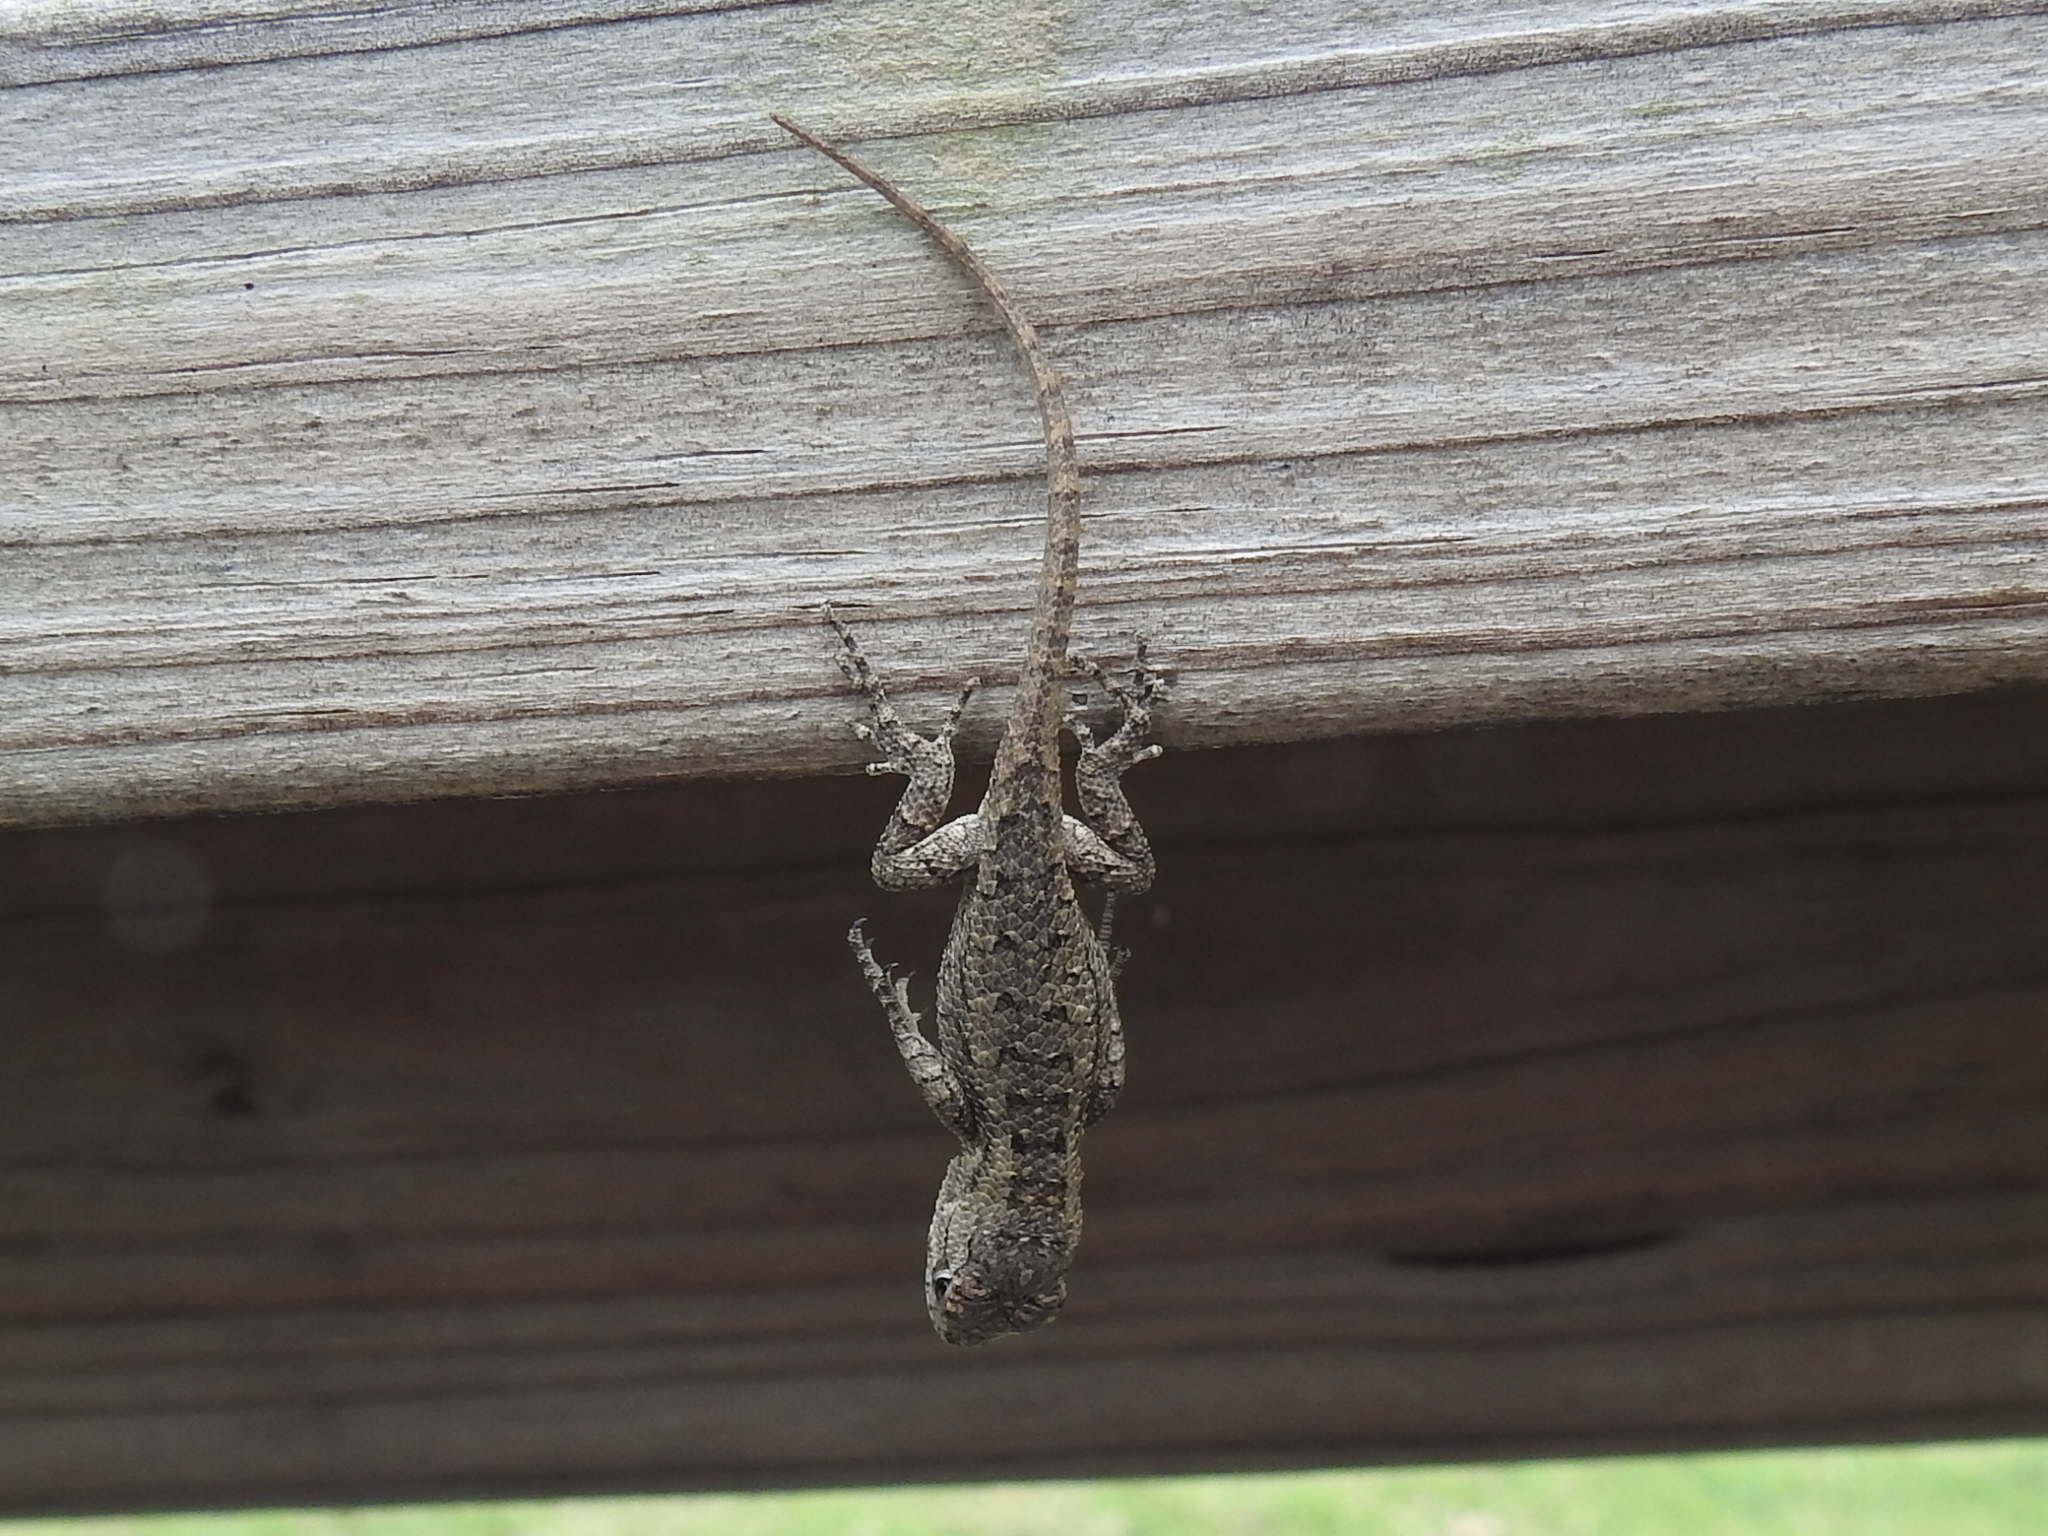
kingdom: Animalia
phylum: Chordata
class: Squamata
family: Phrynosomatidae
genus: Sceloporus
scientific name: Sceloporus olivaceus
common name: Texas spiny lizard
